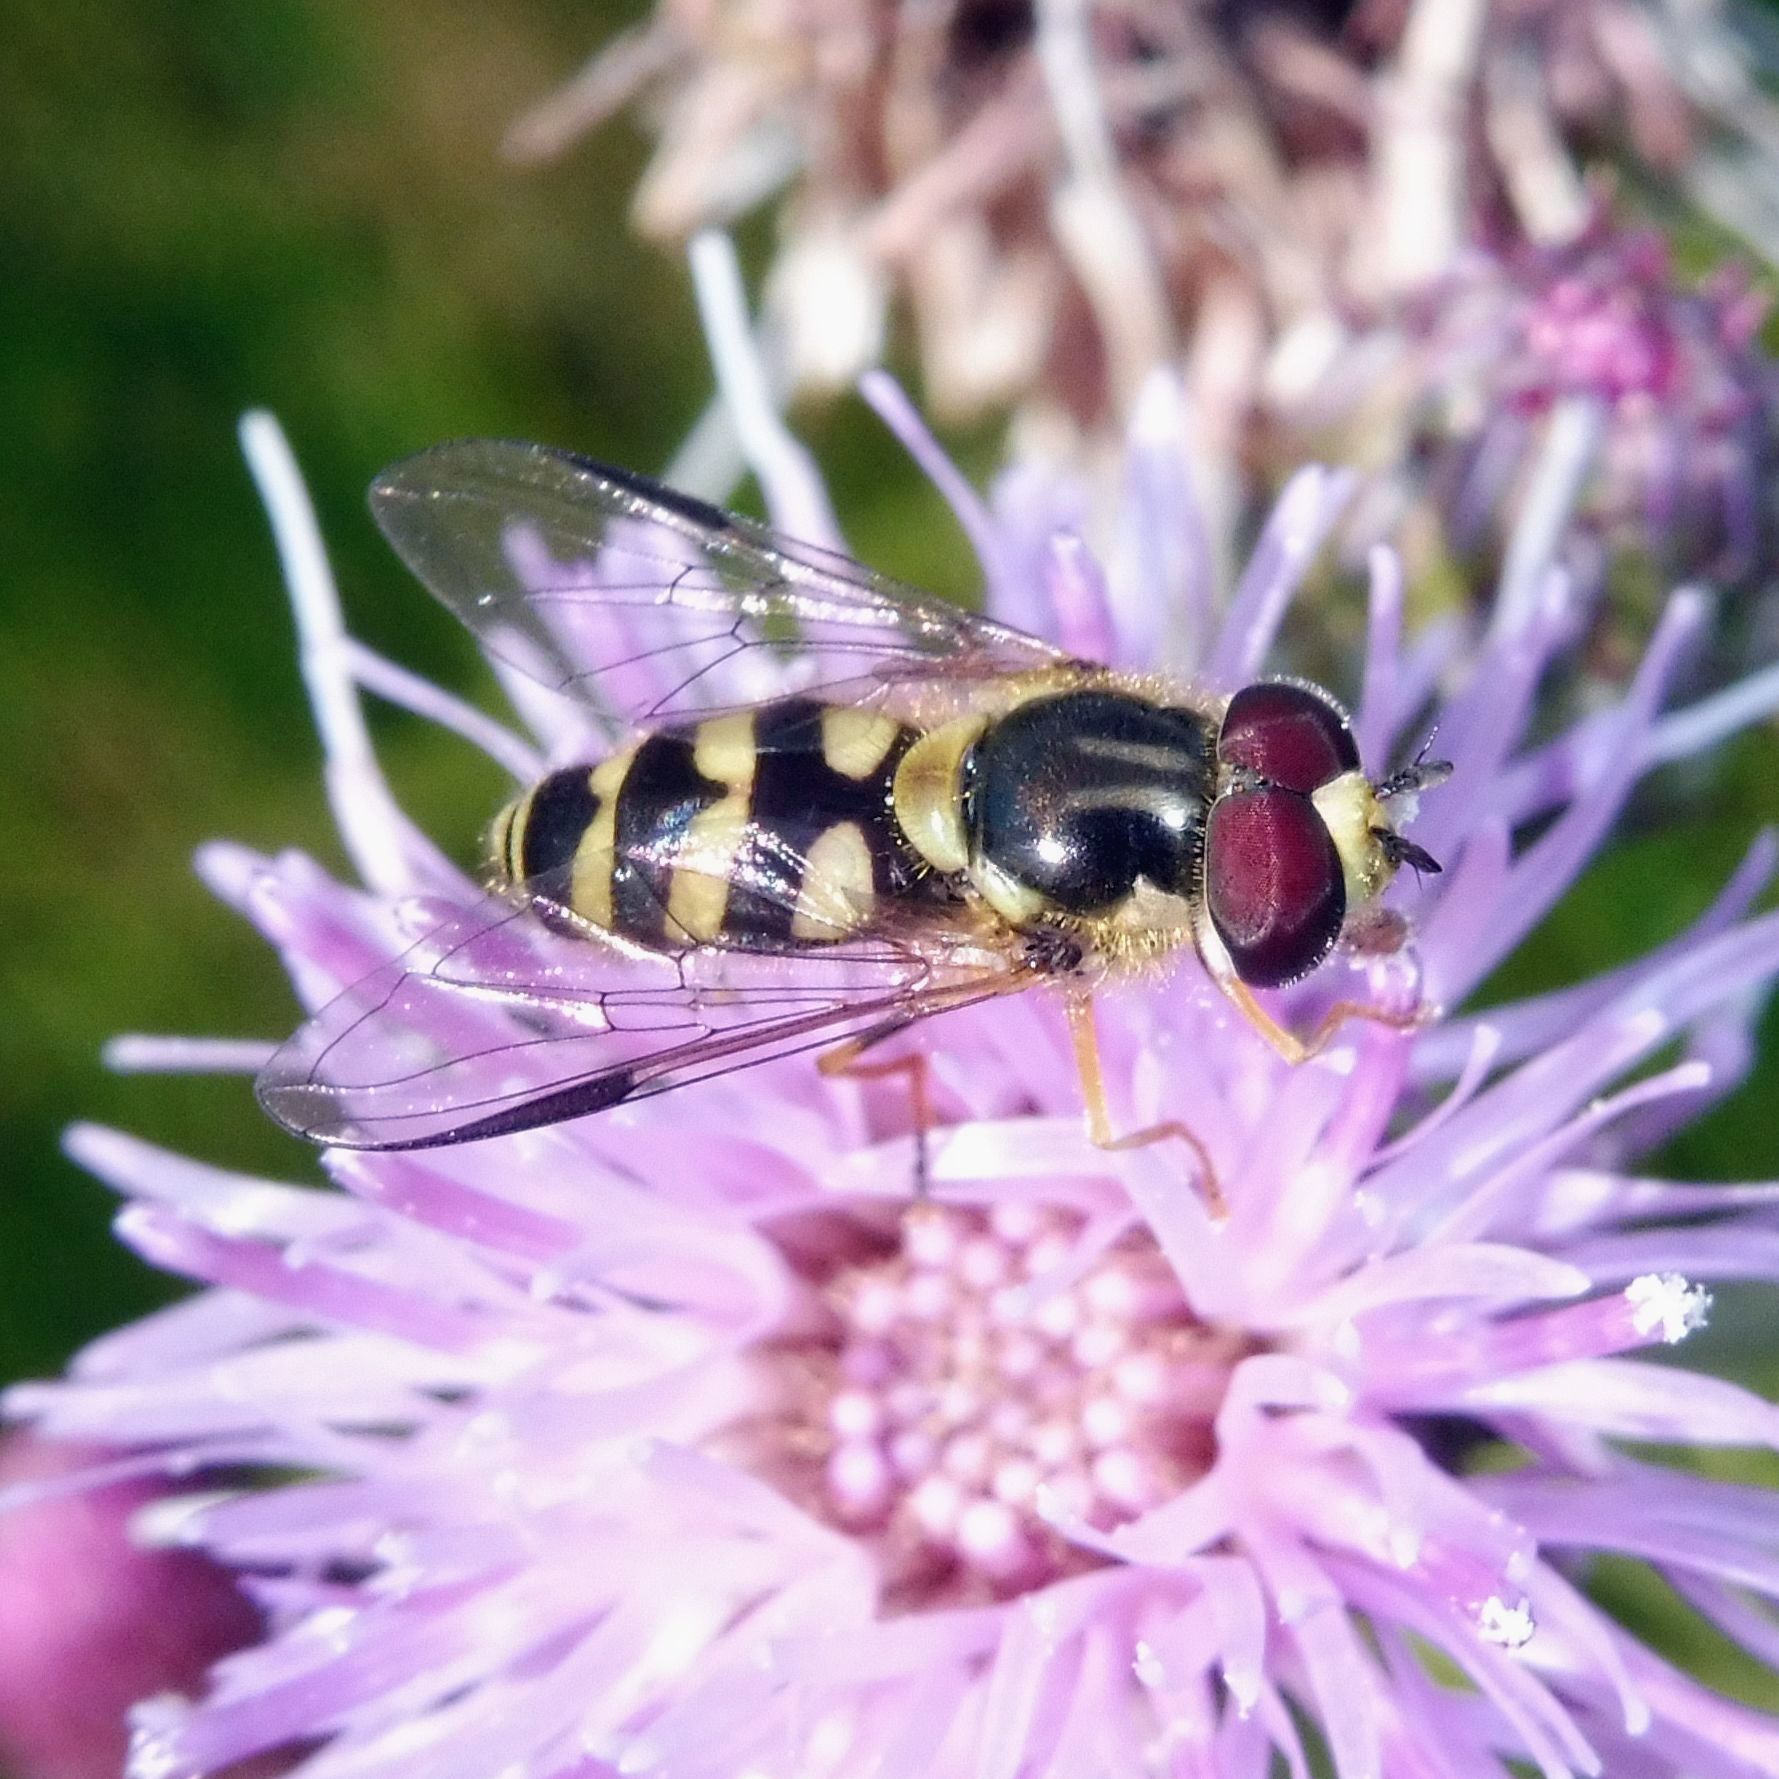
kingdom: Animalia
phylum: Arthropoda
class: Insecta
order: Diptera
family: Syrphidae
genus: Dasysyrphus
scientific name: Dasysyrphus albostriatus
